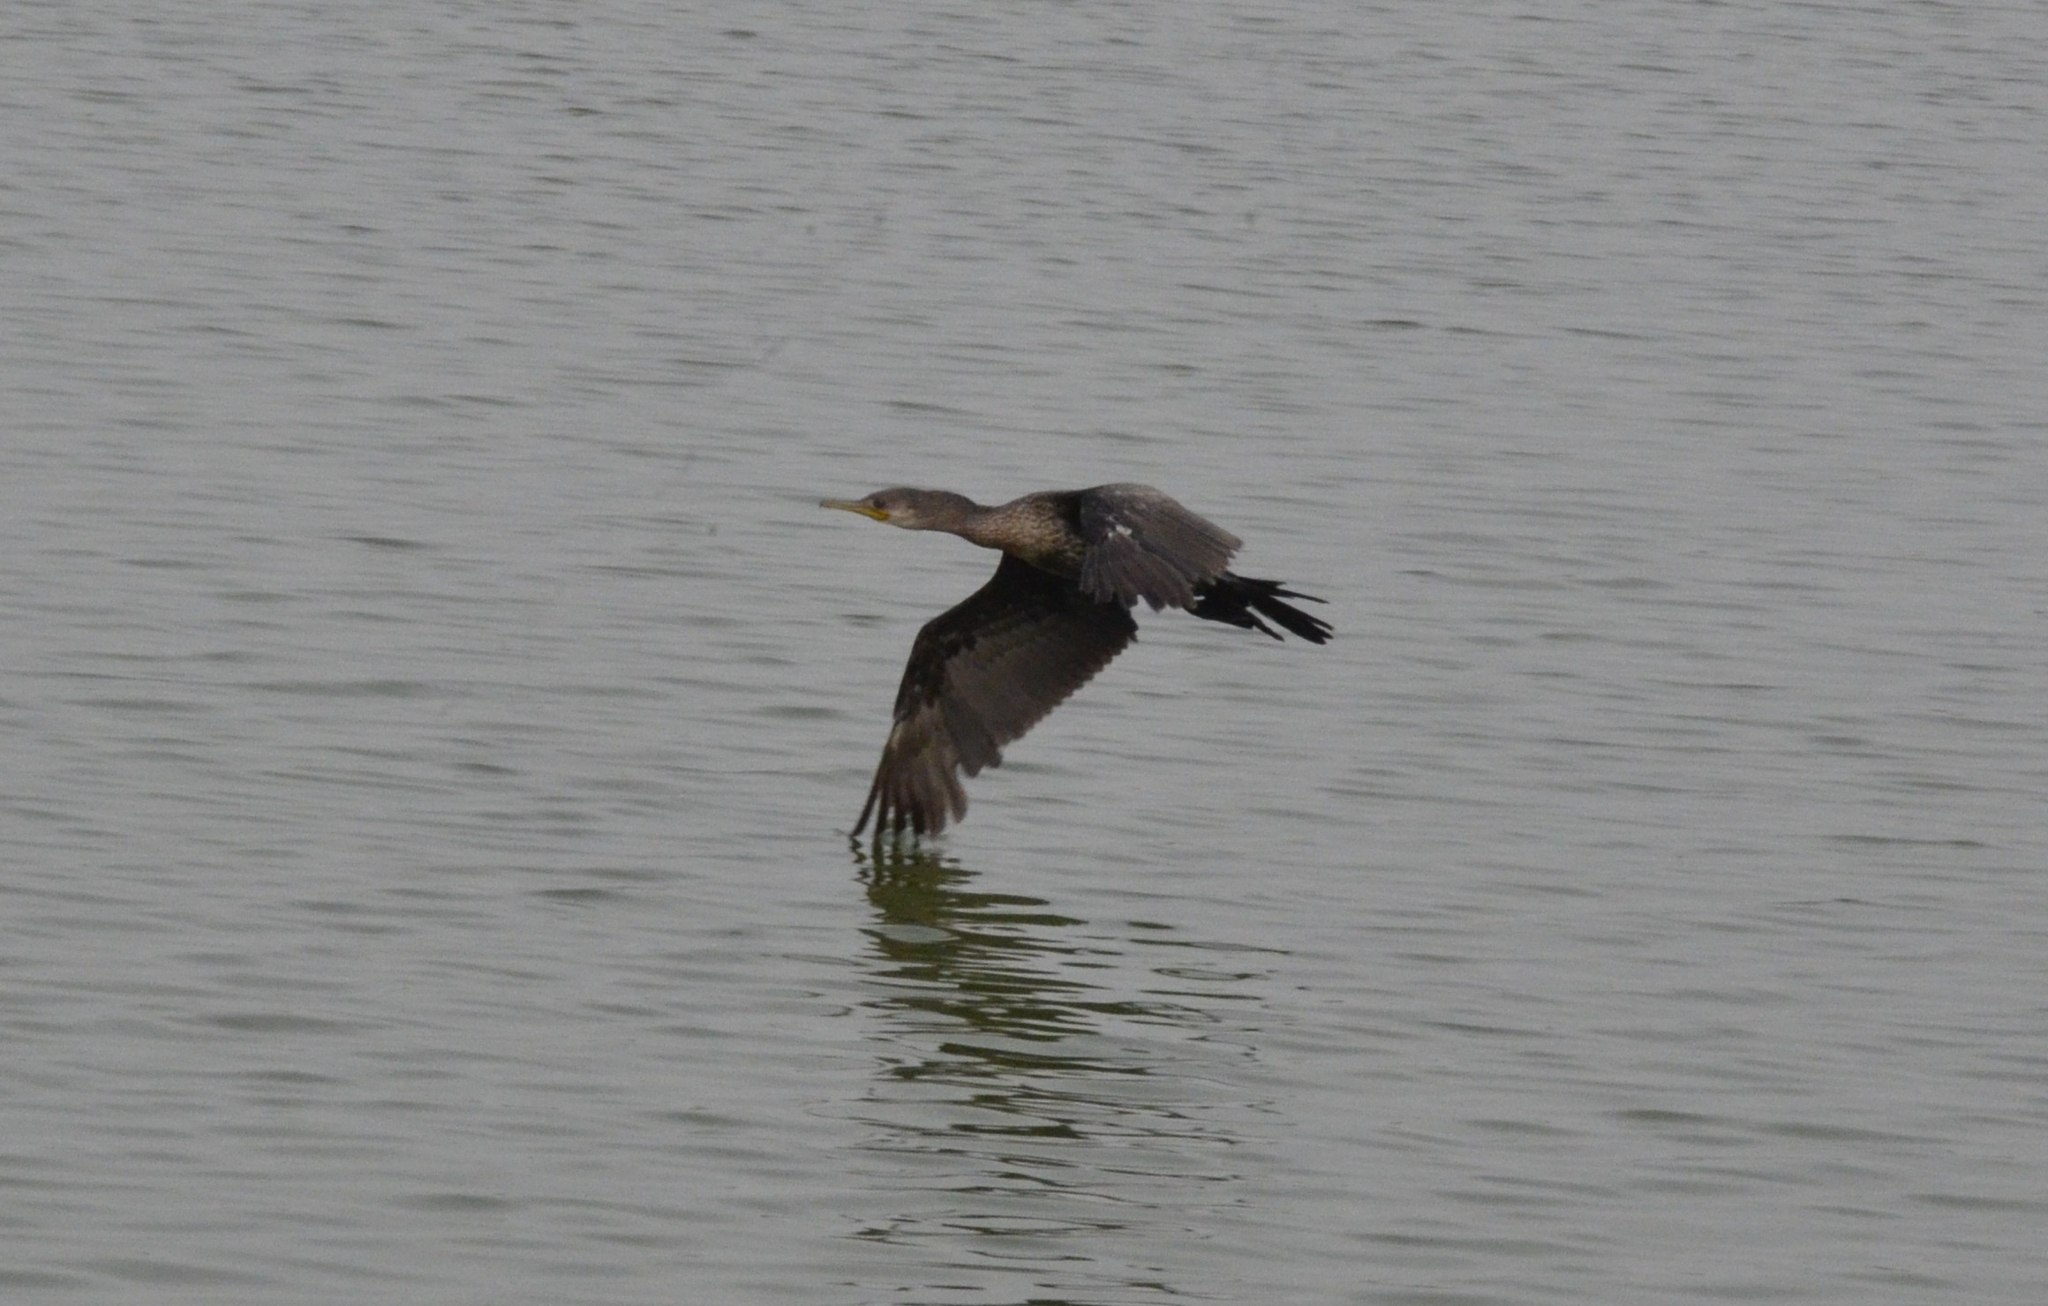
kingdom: Animalia
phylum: Chordata
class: Aves
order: Suliformes
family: Phalacrocoracidae
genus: Phalacrocorax
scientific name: Phalacrocorax fuscicollis
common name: Indian cormorant
